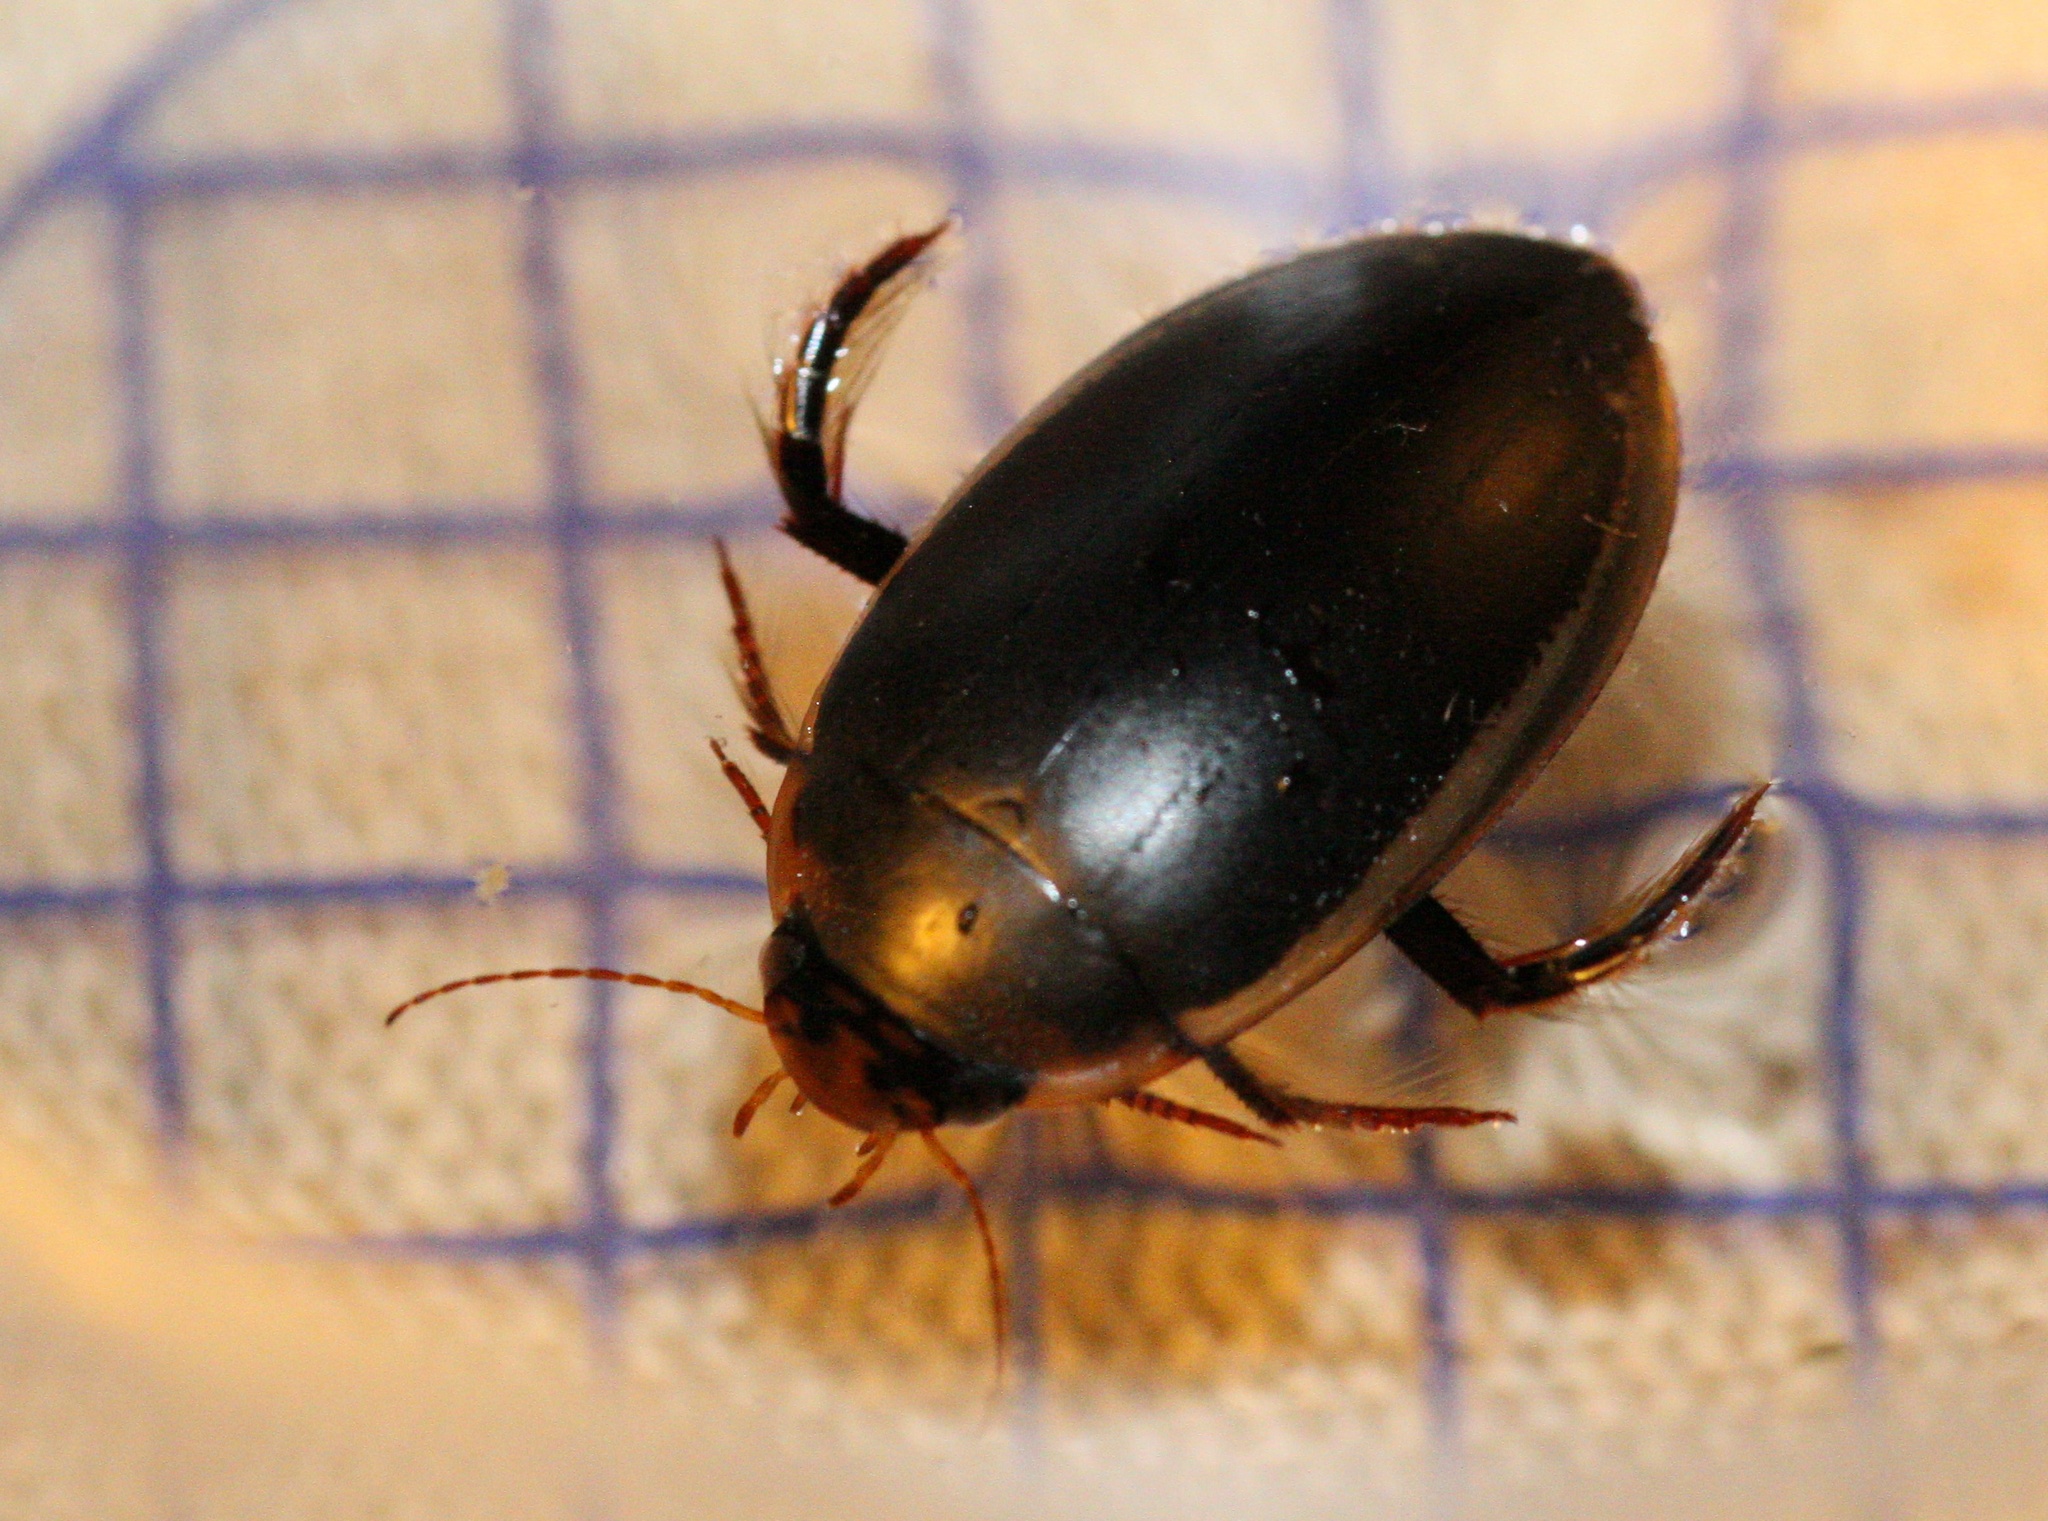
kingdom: Animalia
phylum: Arthropoda
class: Insecta
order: Coleoptera
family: Dytiscidae
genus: Hydaticus
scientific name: Hydaticus seminiger
